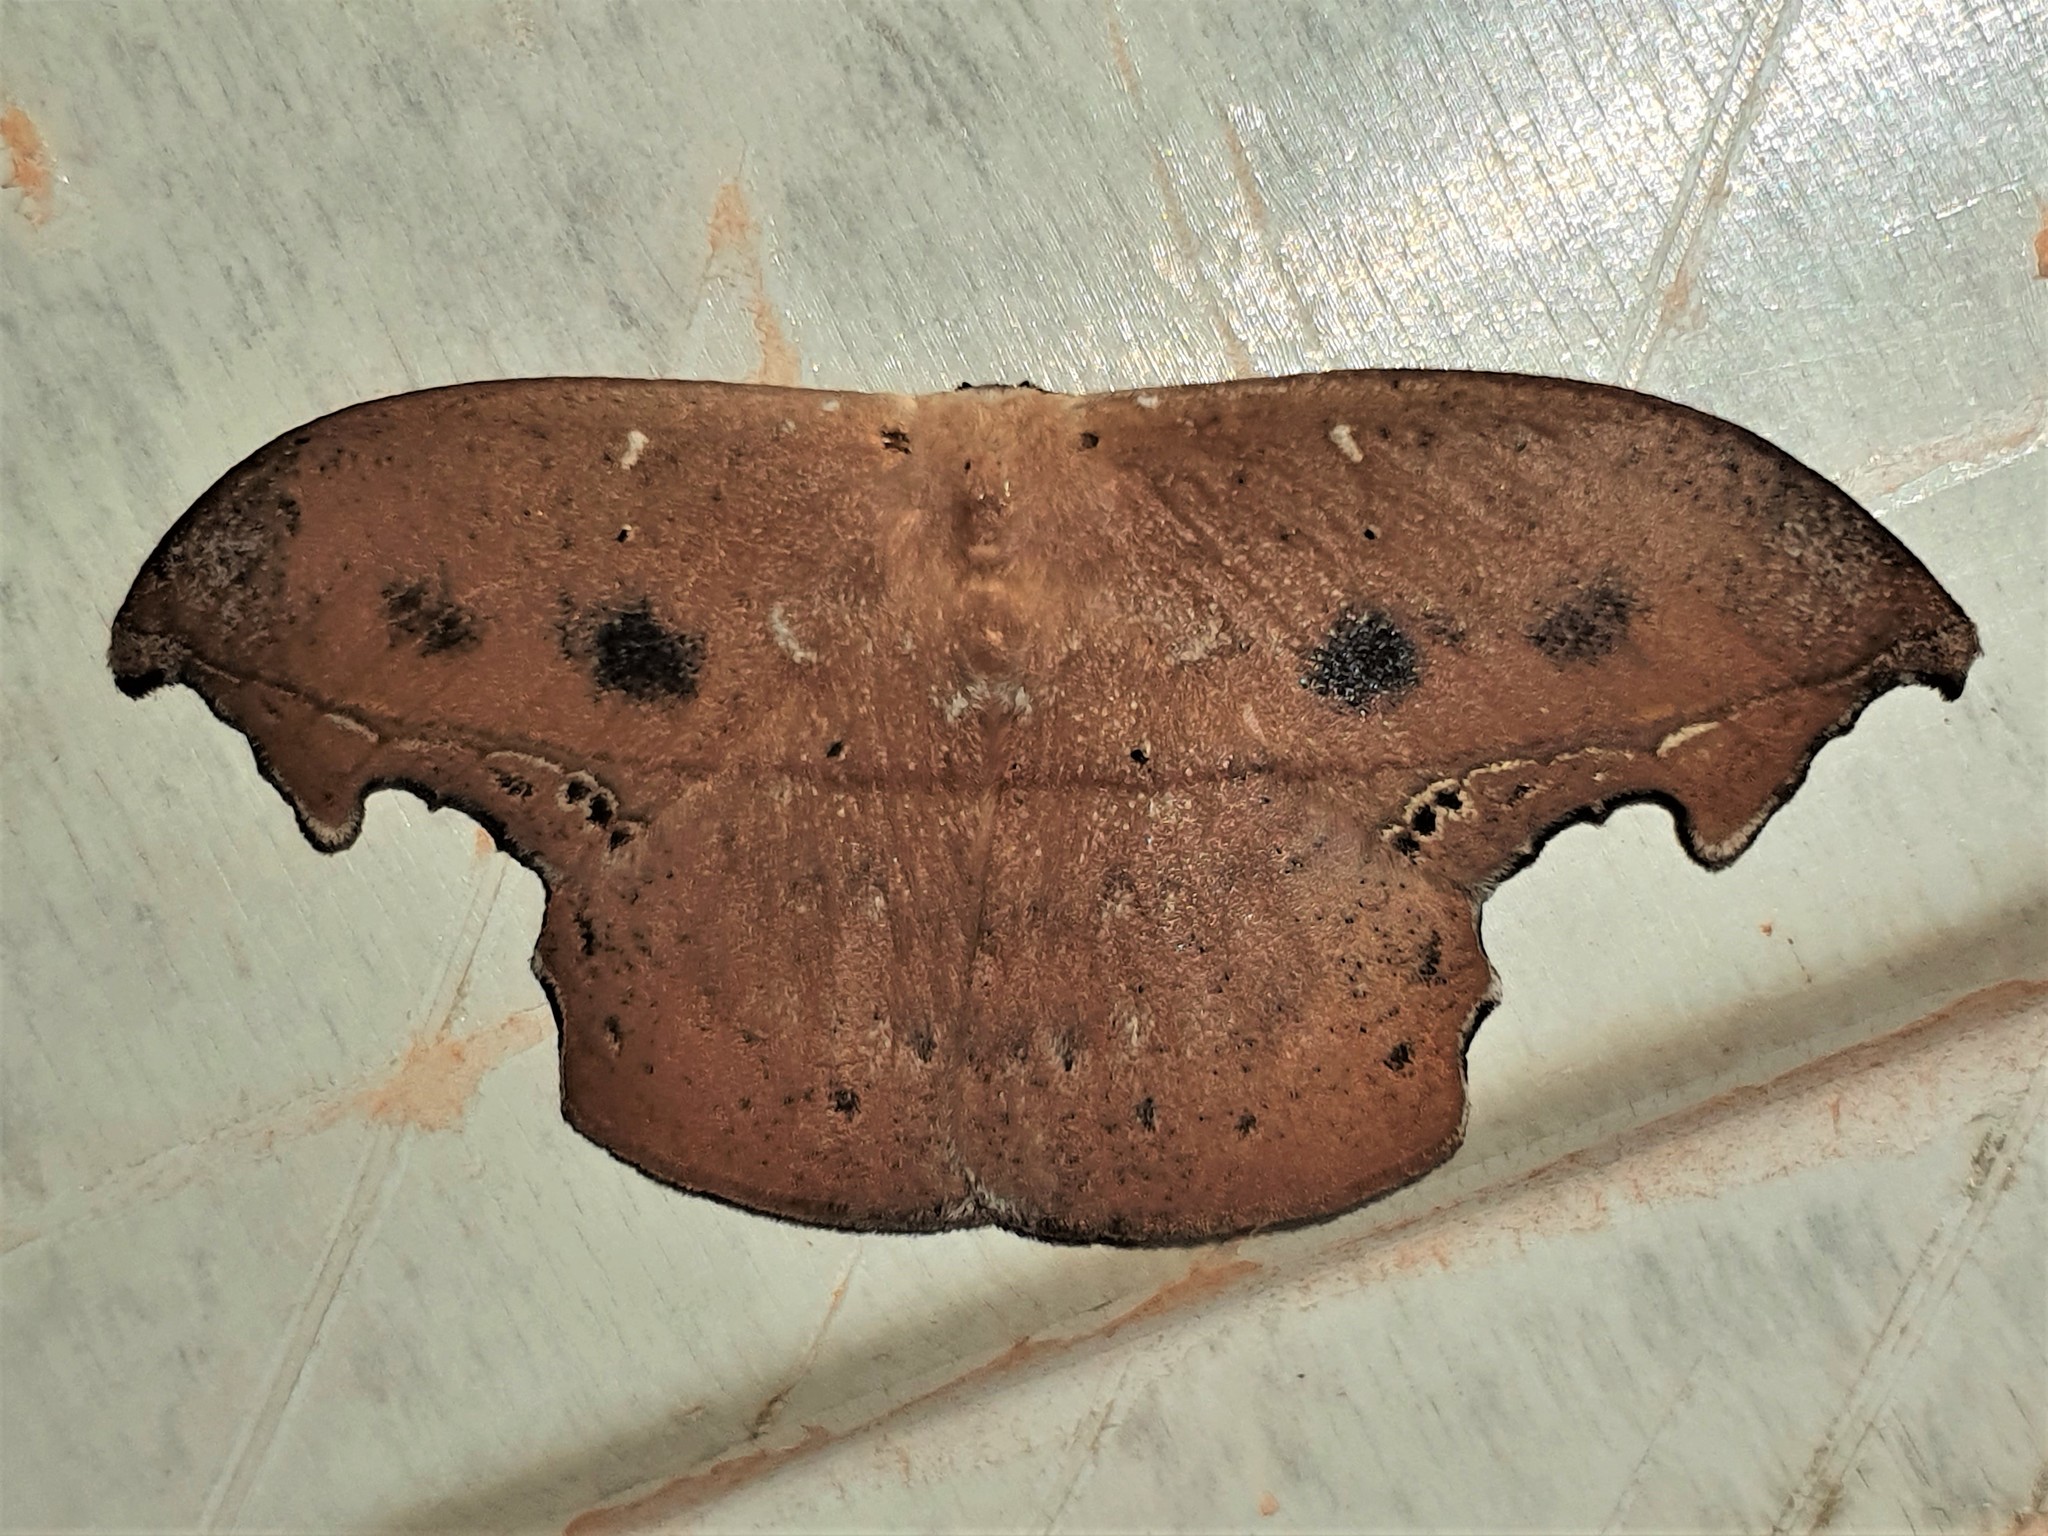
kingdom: Animalia
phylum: Arthropoda
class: Insecta
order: Lepidoptera
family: Saturniidae
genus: Oxytenis
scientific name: Oxytenis nubila
